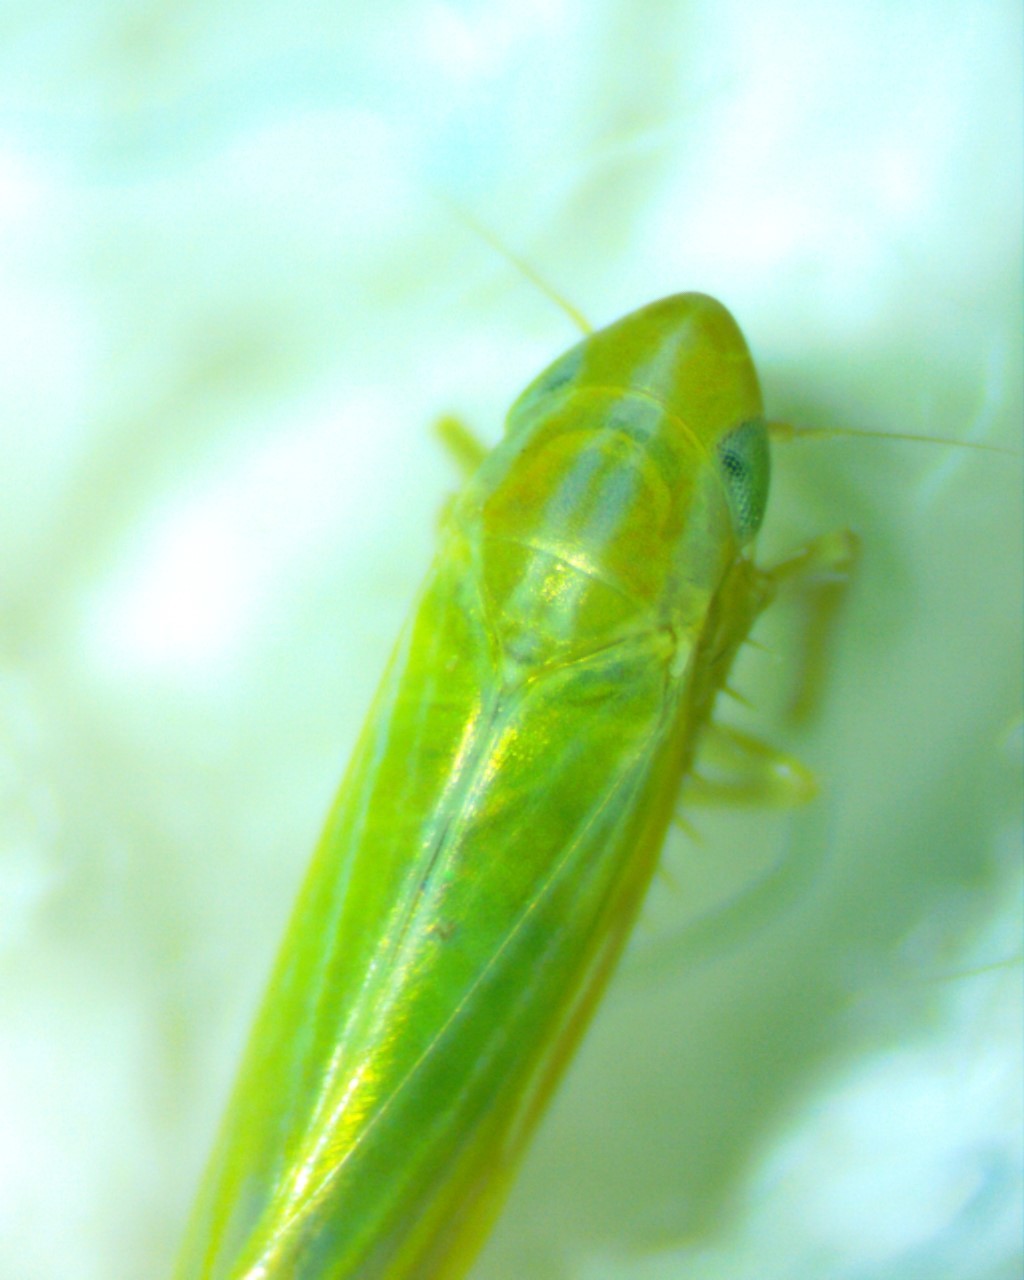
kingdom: Animalia
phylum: Arthropoda
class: Insecta
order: Hemiptera
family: Cicadellidae
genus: Dikraneura
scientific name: Dikraneura angustata
